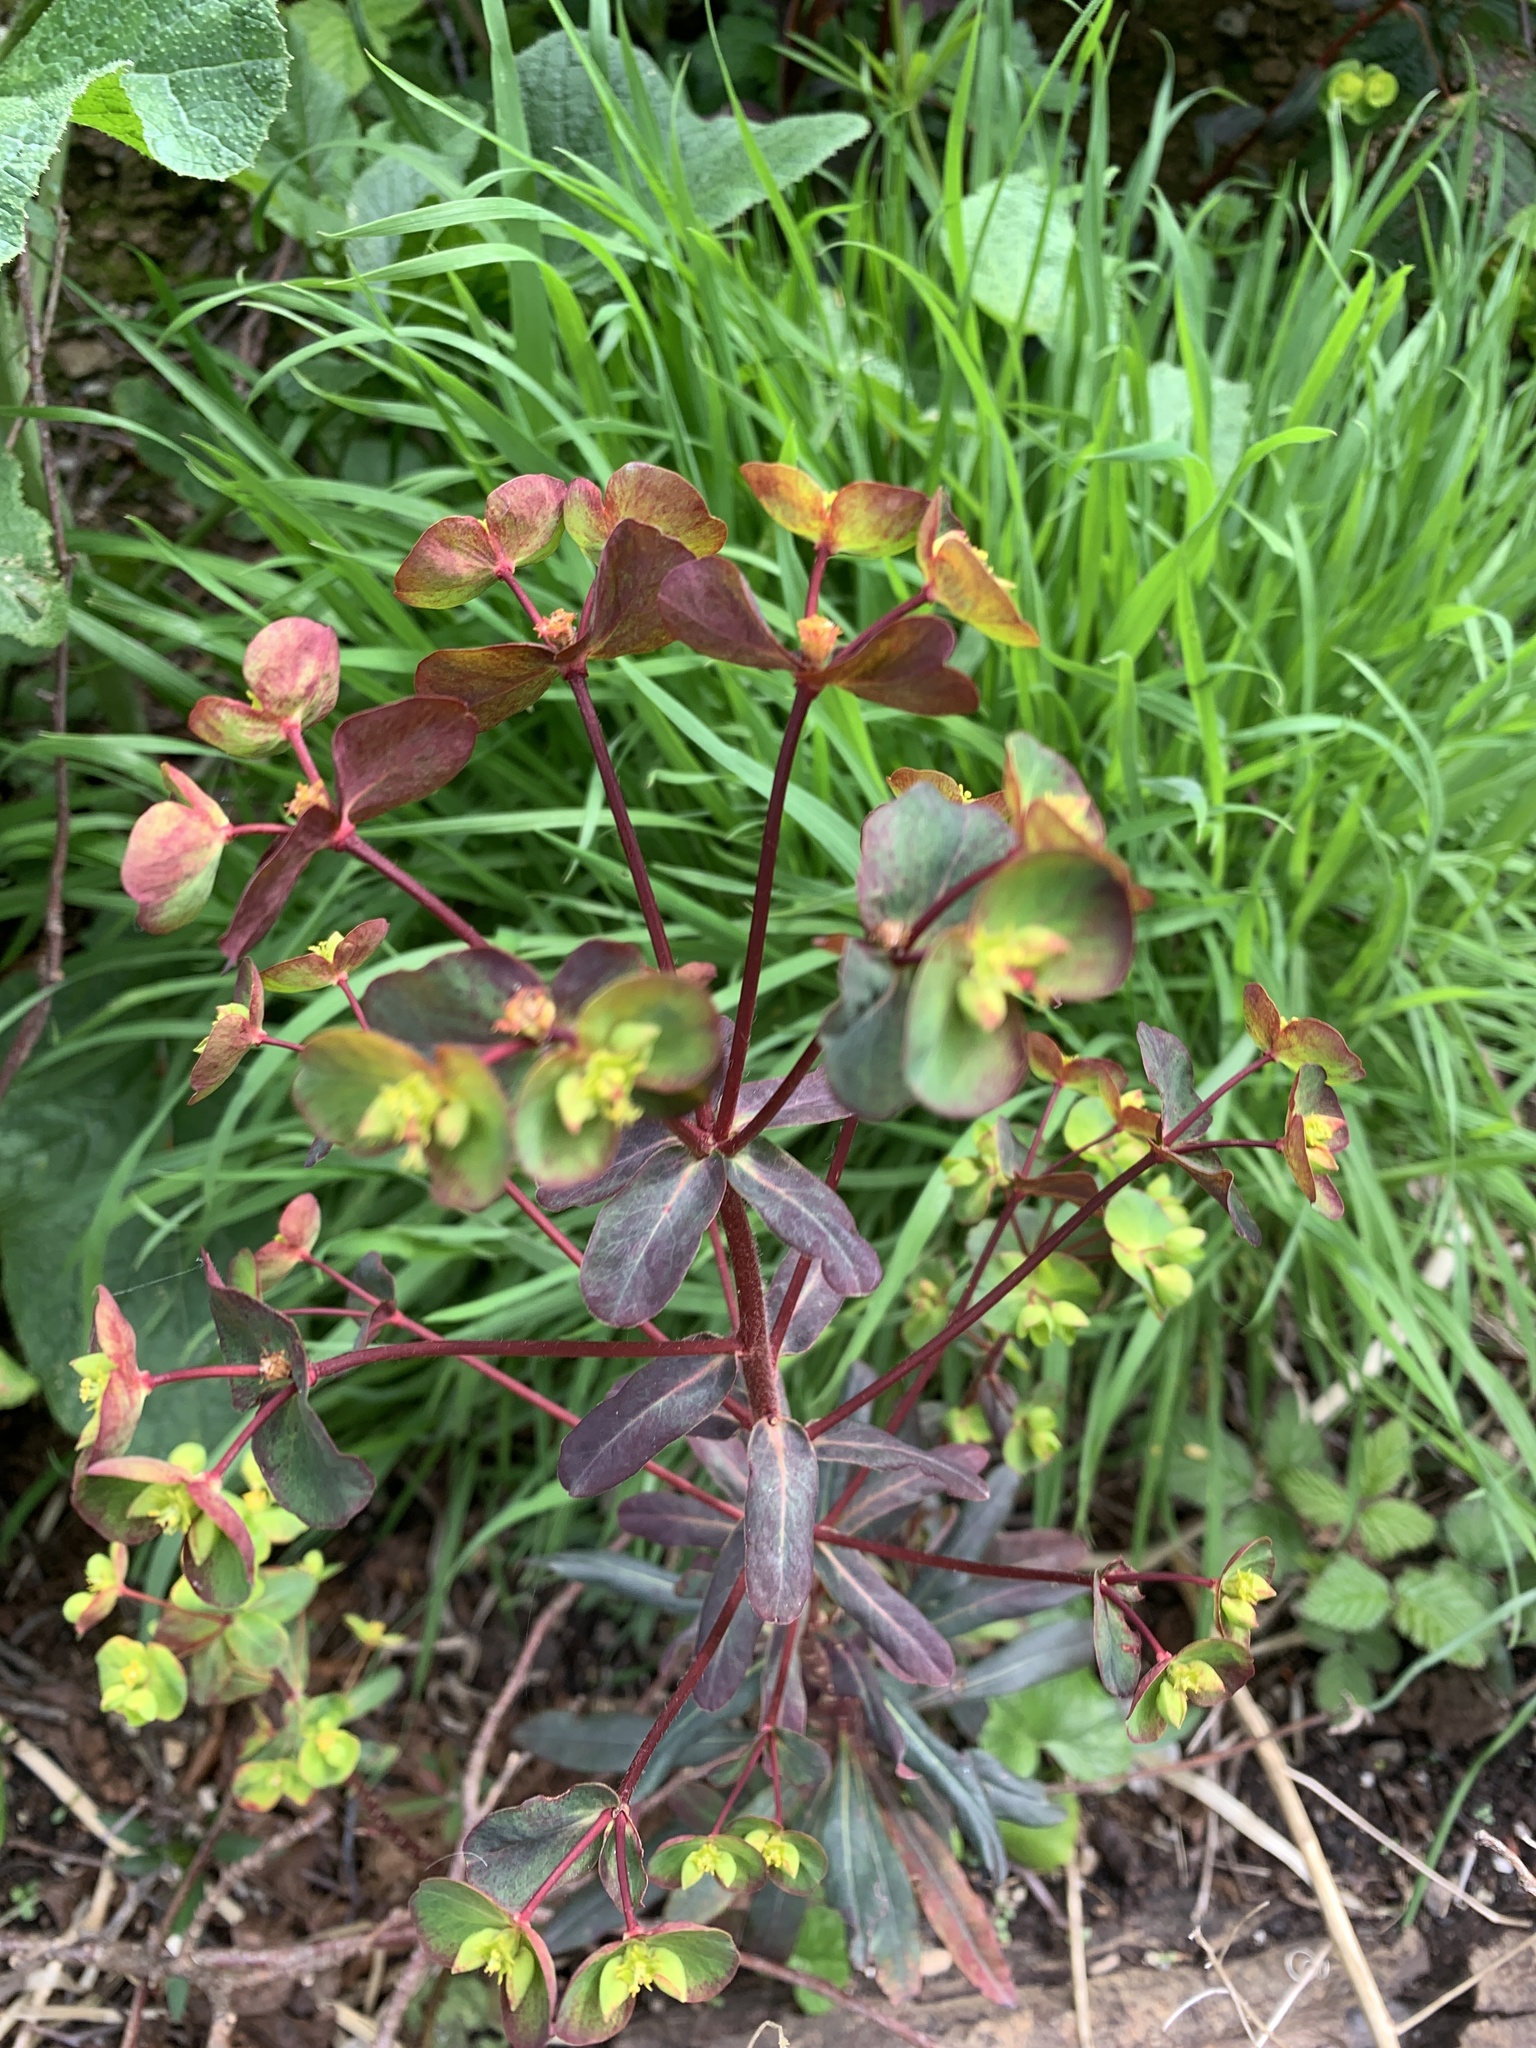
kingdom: Plantae
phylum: Tracheophyta
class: Magnoliopsida
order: Malpighiales
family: Euphorbiaceae
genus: Euphorbia
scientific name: Euphorbia amygdaloides
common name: Wood spurge
